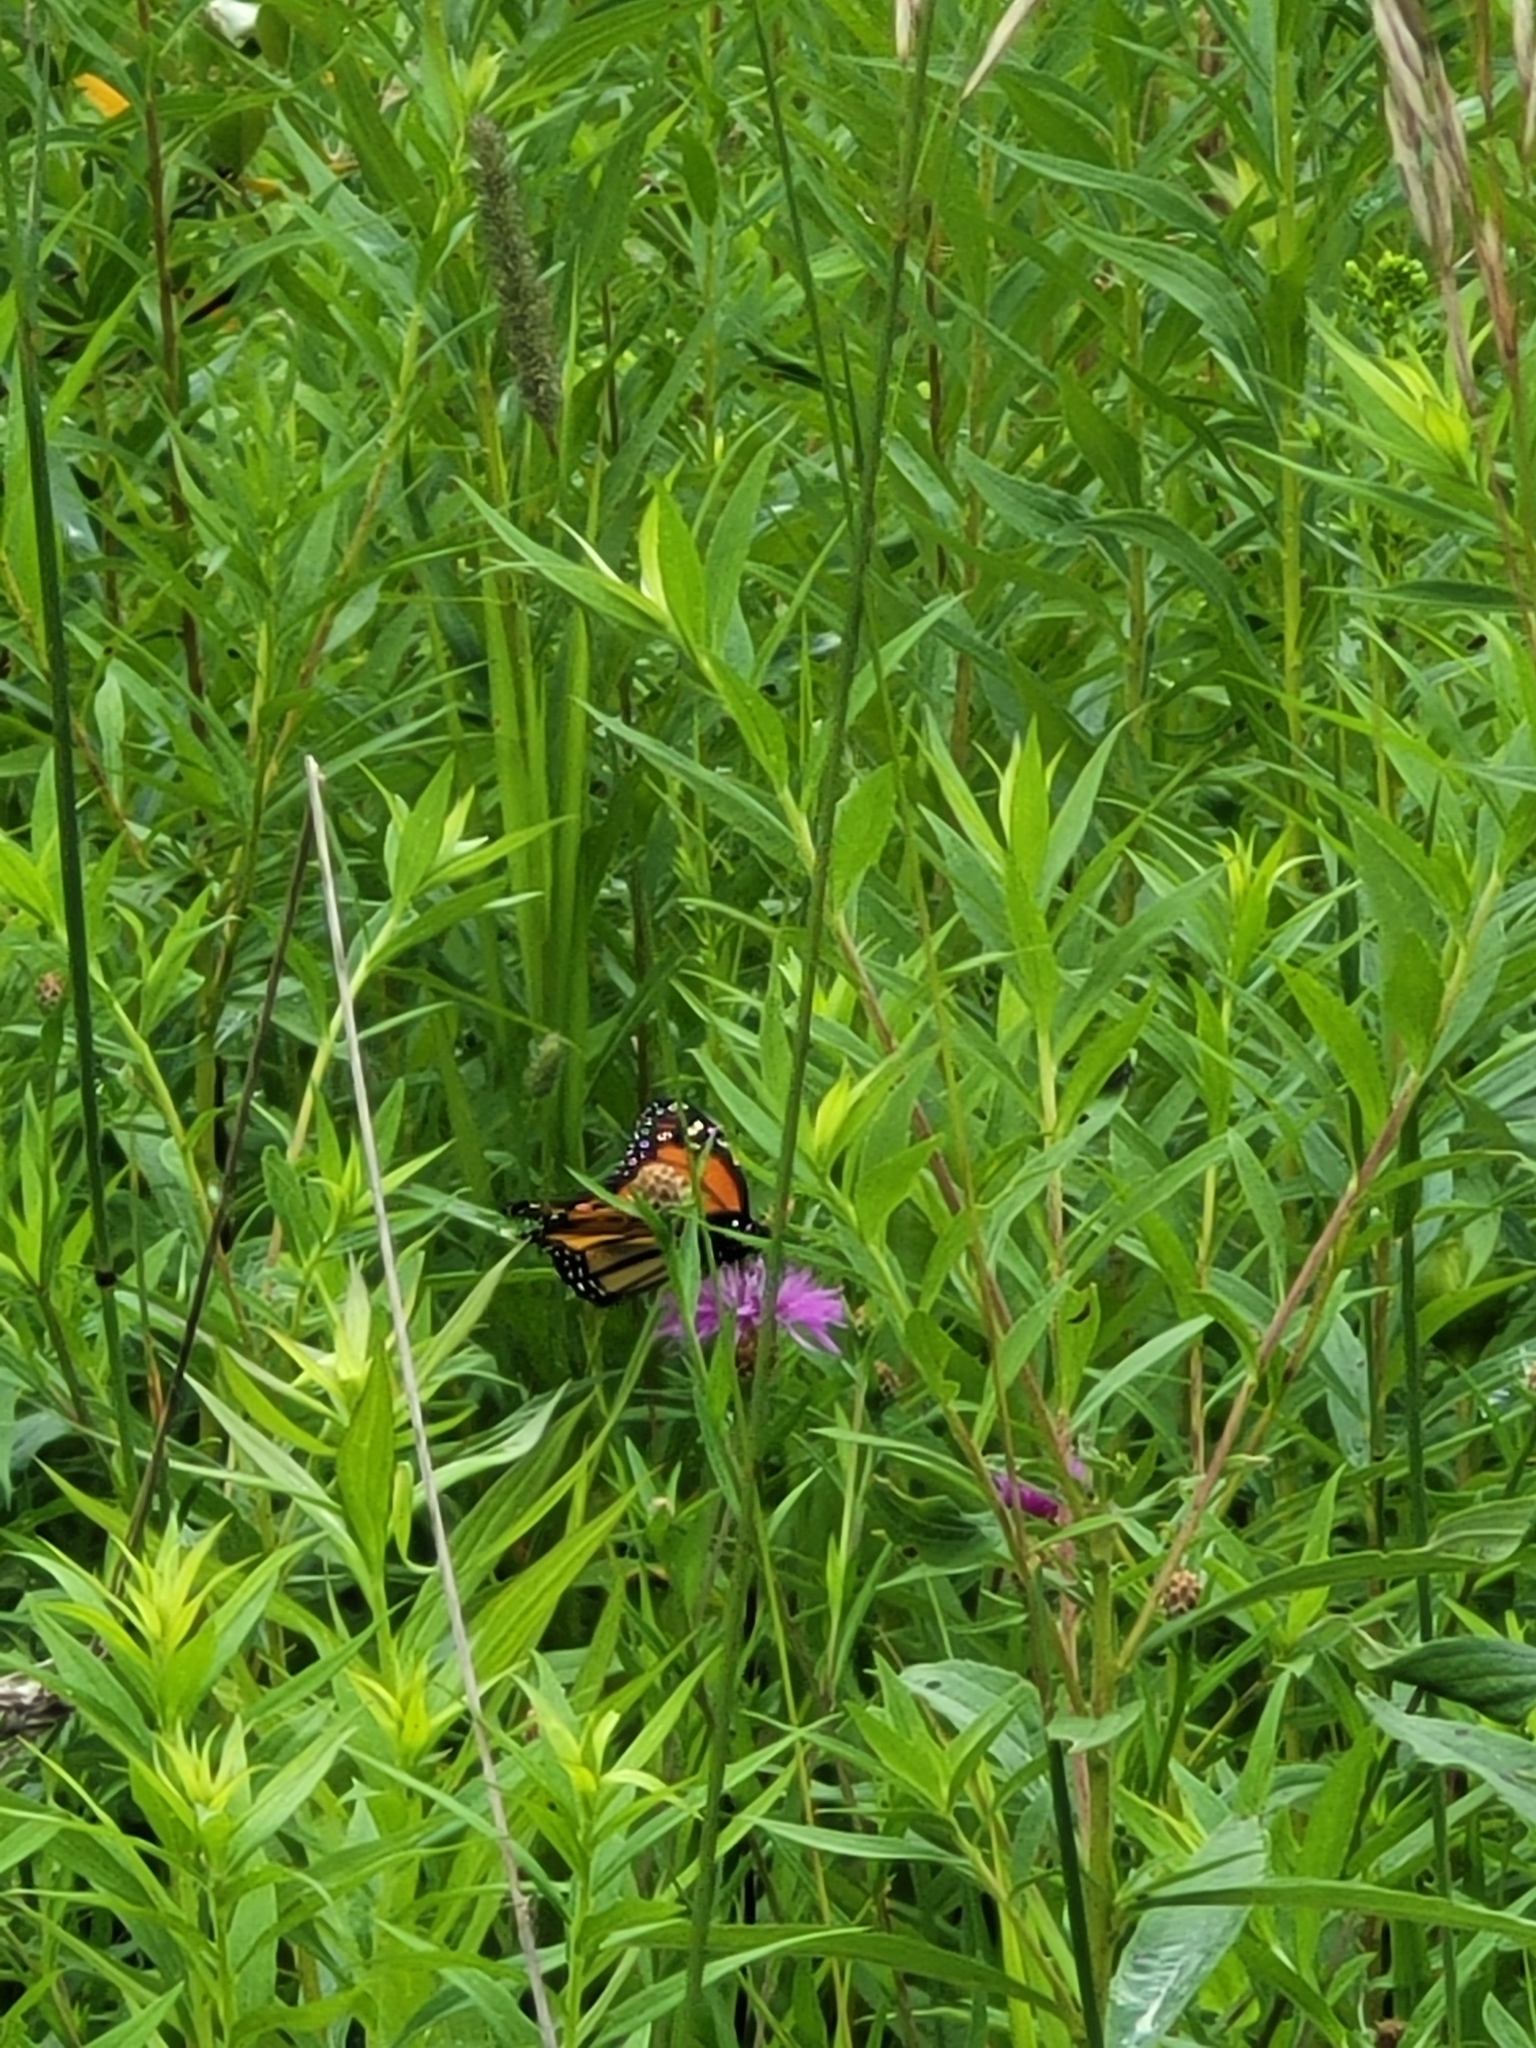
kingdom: Animalia
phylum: Arthropoda
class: Insecta
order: Lepidoptera
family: Nymphalidae
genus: Danaus
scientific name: Danaus plexippus
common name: Monarch
